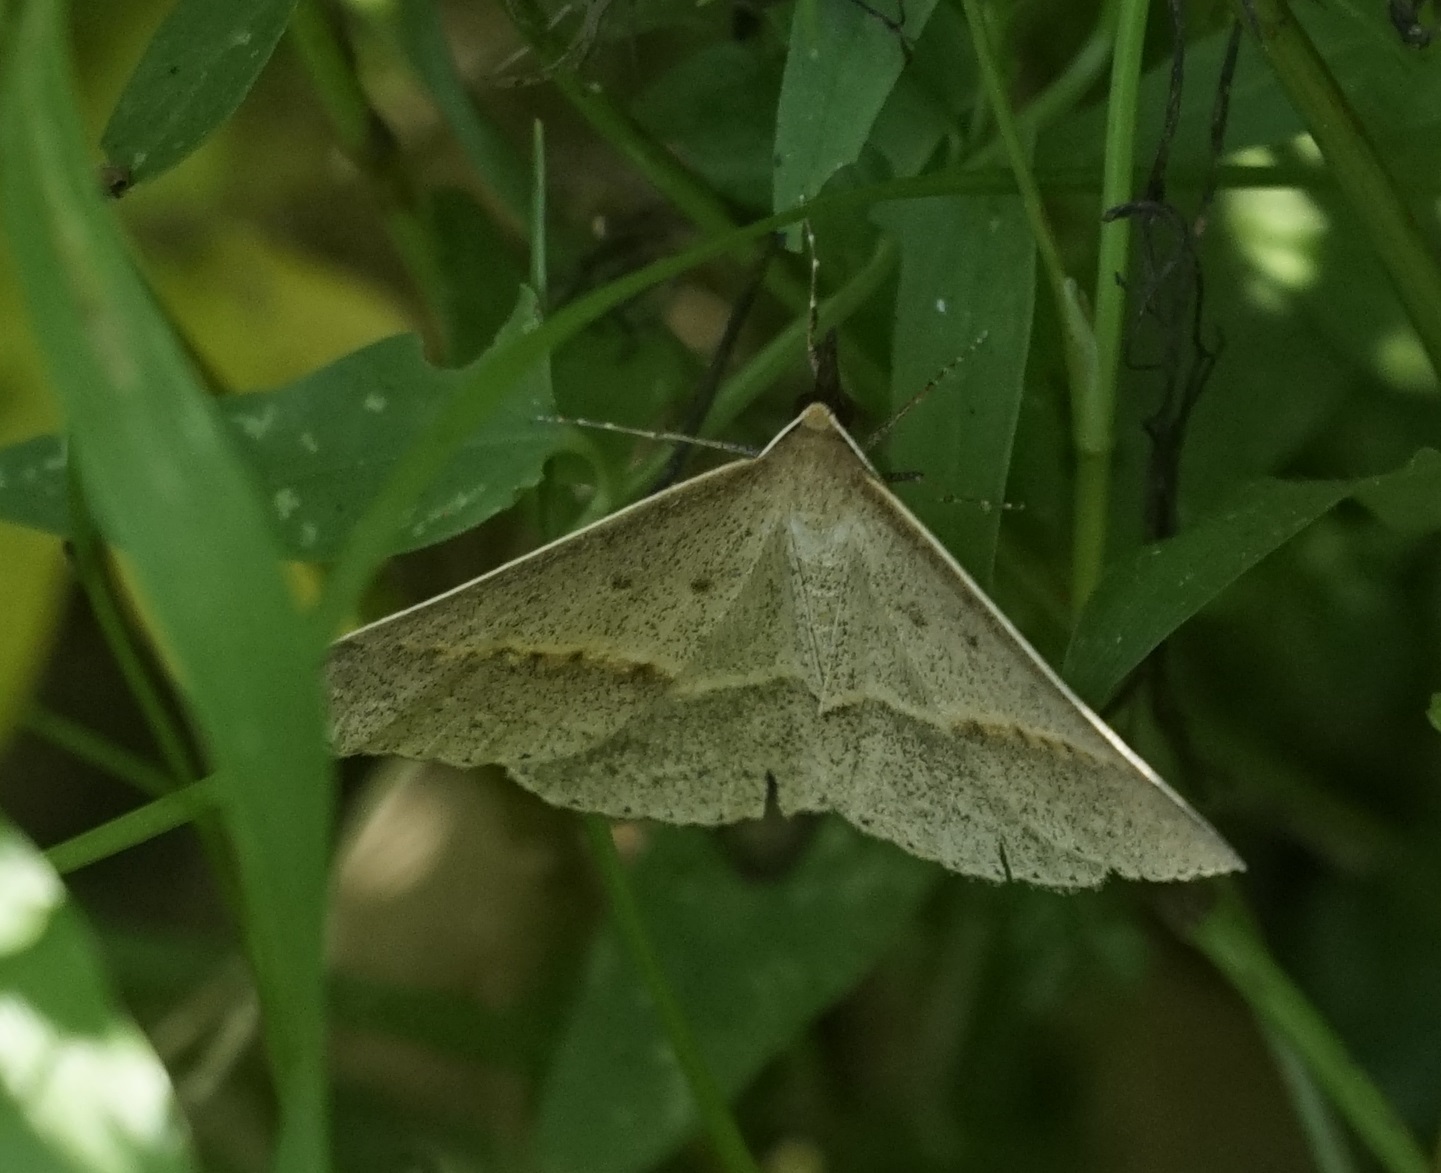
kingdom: Animalia
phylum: Arthropoda
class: Insecta
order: Lepidoptera
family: Geometridae
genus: Epidesmia
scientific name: Epidesmia tryxaria
